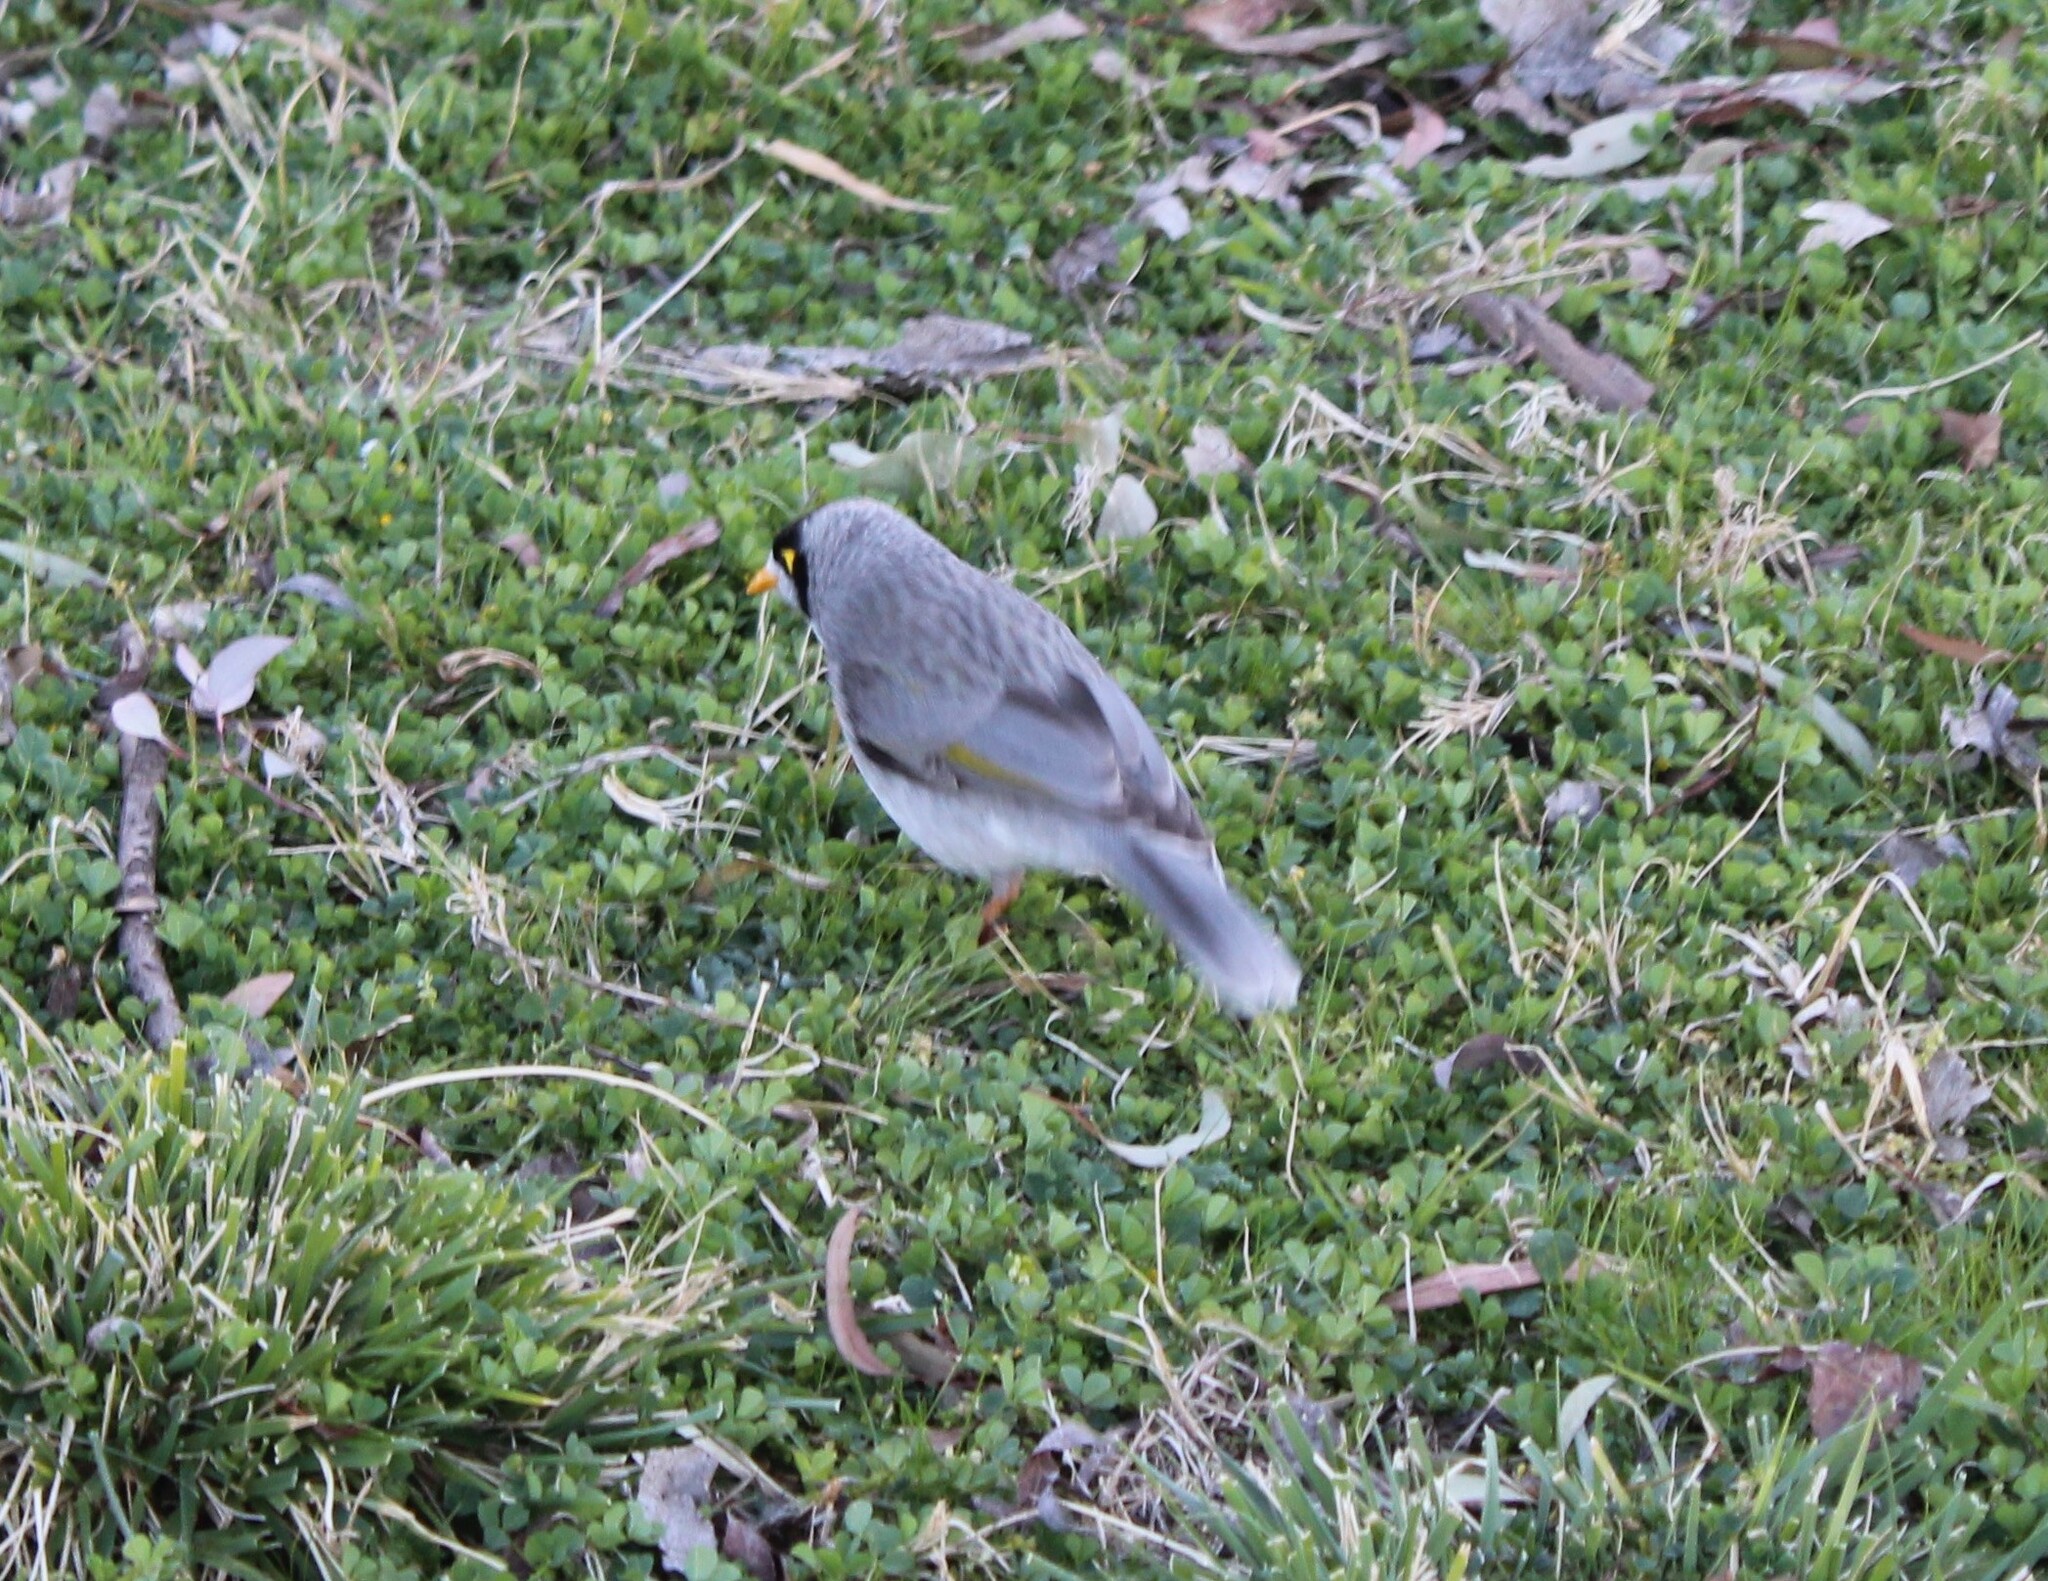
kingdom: Animalia
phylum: Chordata
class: Aves
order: Passeriformes
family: Meliphagidae
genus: Manorina
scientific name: Manorina melanocephala
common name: Noisy miner
